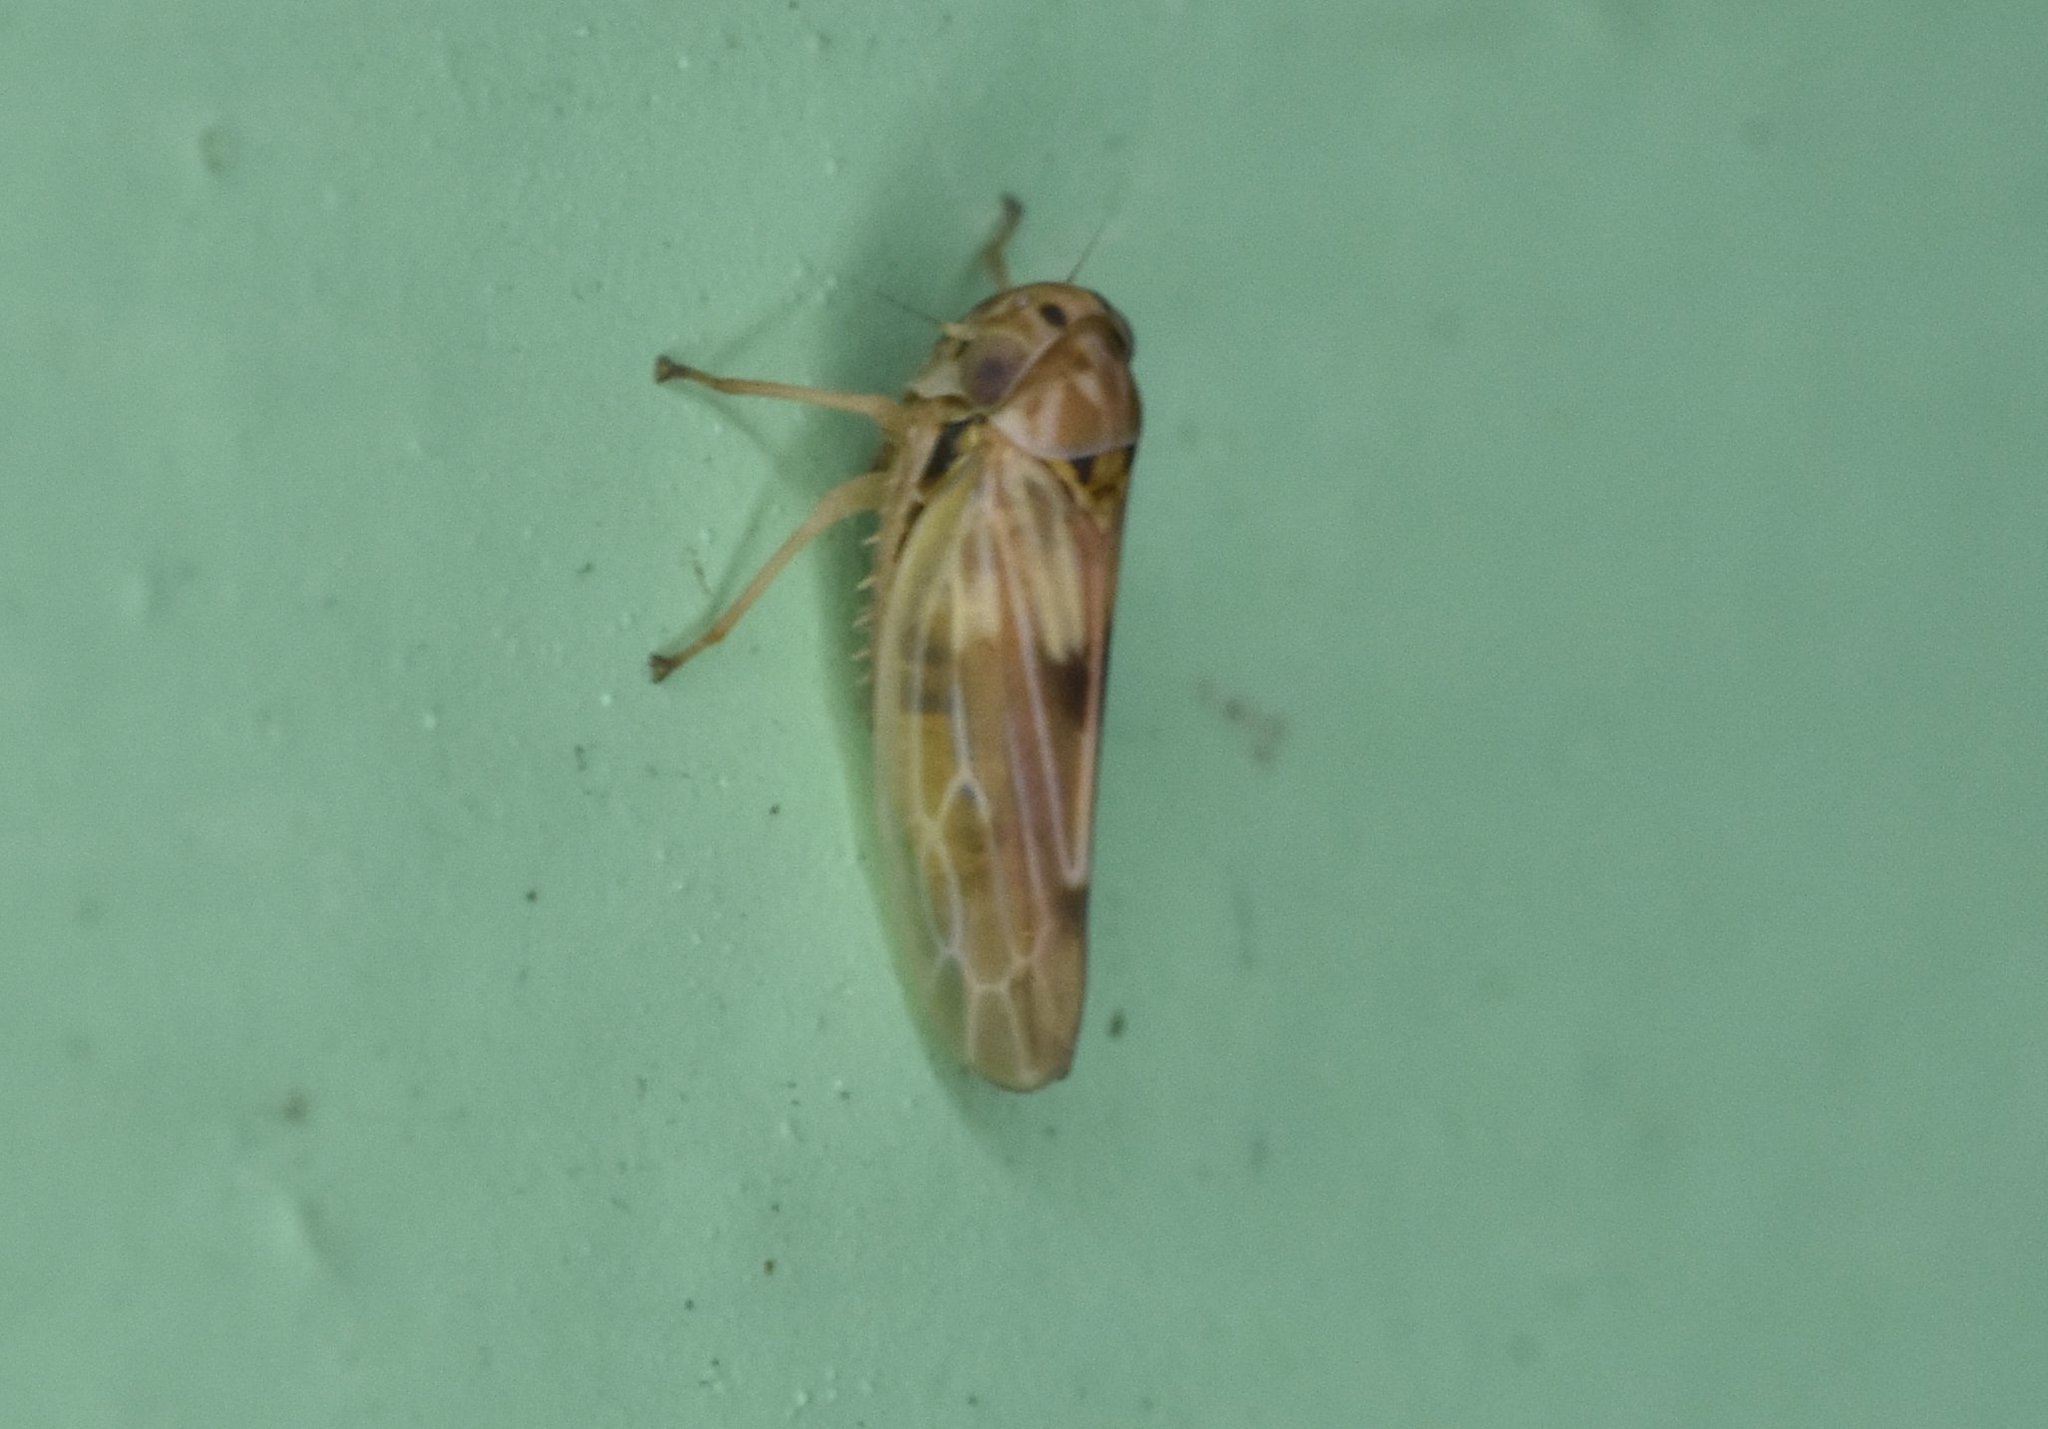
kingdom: Animalia
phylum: Arthropoda
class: Insecta
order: Hemiptera
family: Cicadellidae
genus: Agallia
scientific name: Agallia albidula
